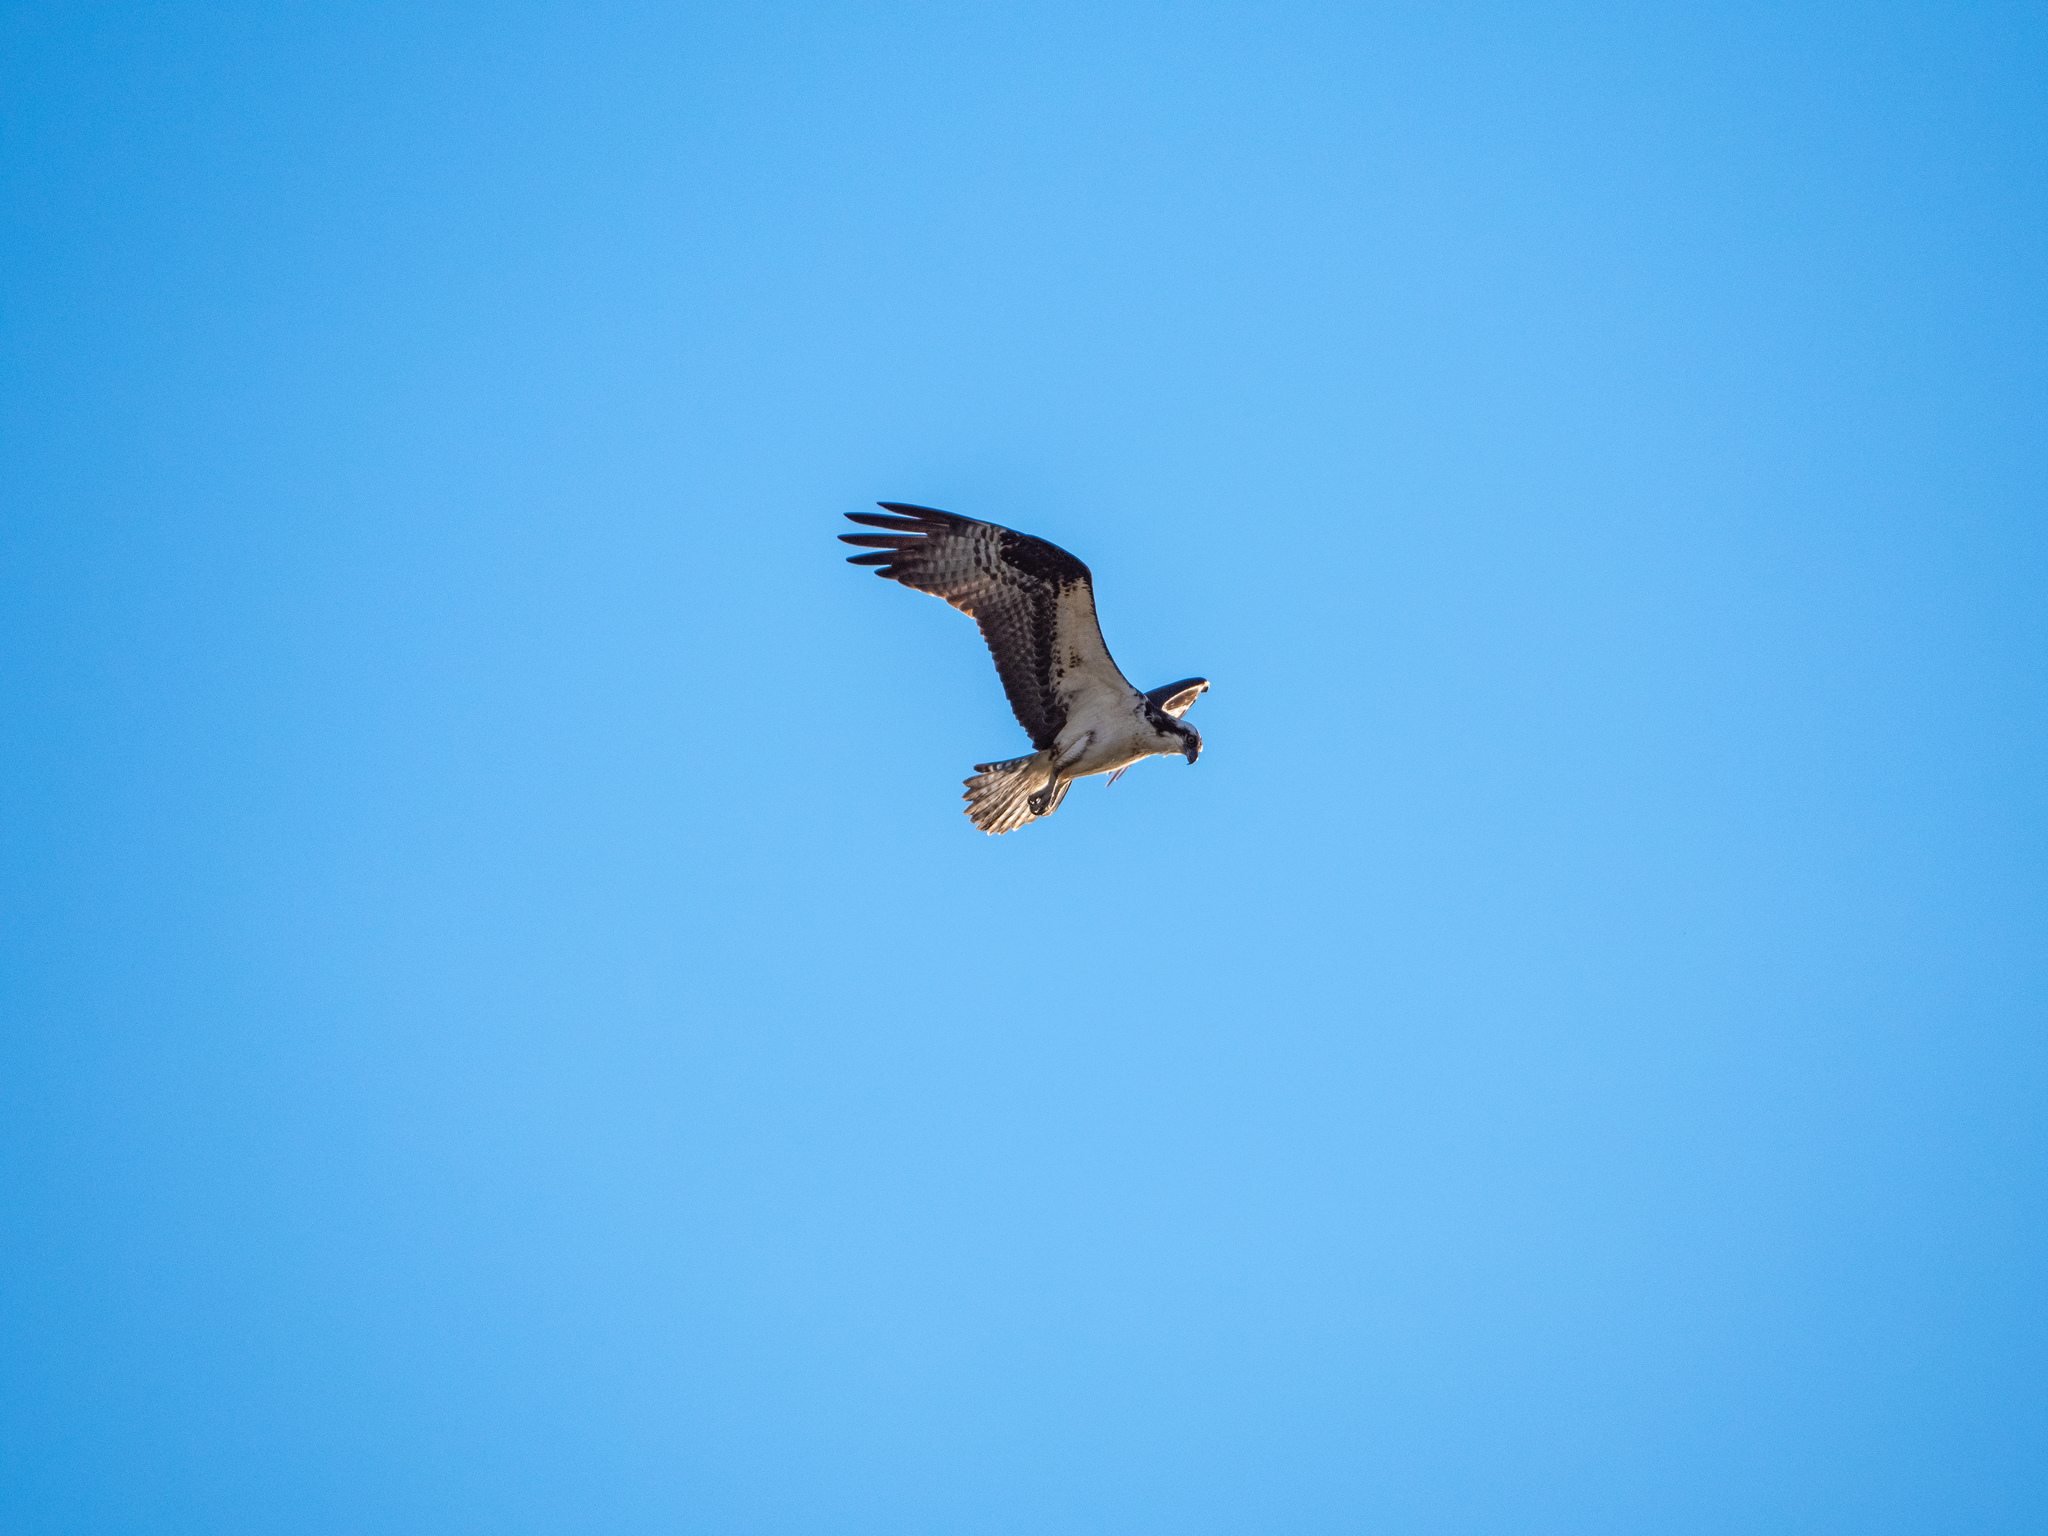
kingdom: Animalia
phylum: Chordata
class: Aves
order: Accipitriformes
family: Pandionidae
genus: Pandion
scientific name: Pandion haliaetus
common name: Osprey
